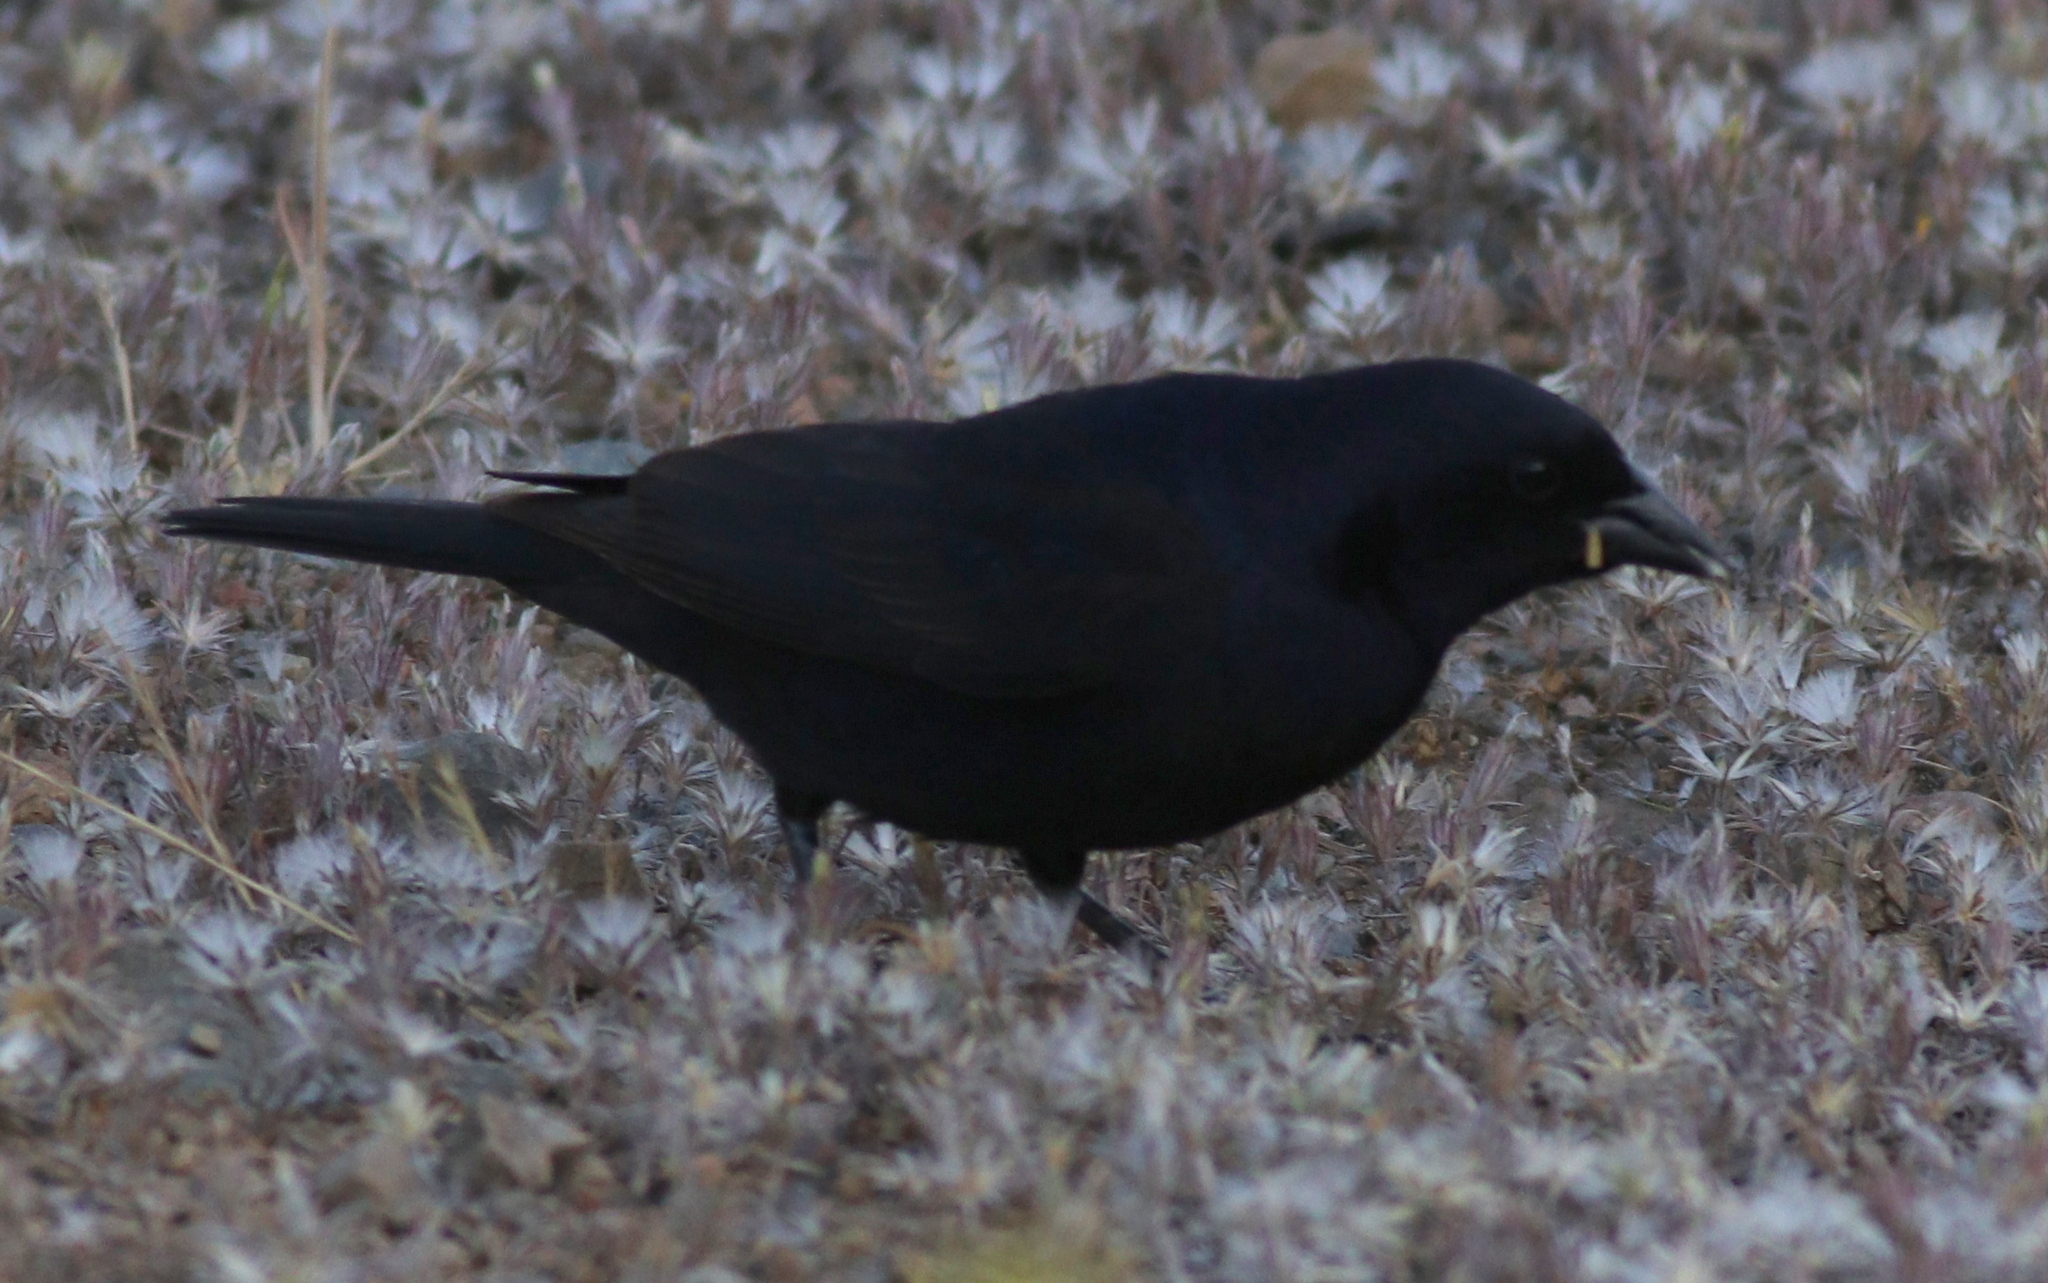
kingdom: Animalia
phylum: Chordata
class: Aves
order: Passeriformes
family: Icteridae
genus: Molothrus
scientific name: Molothrus bonariensis
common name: Shiny cowbird
